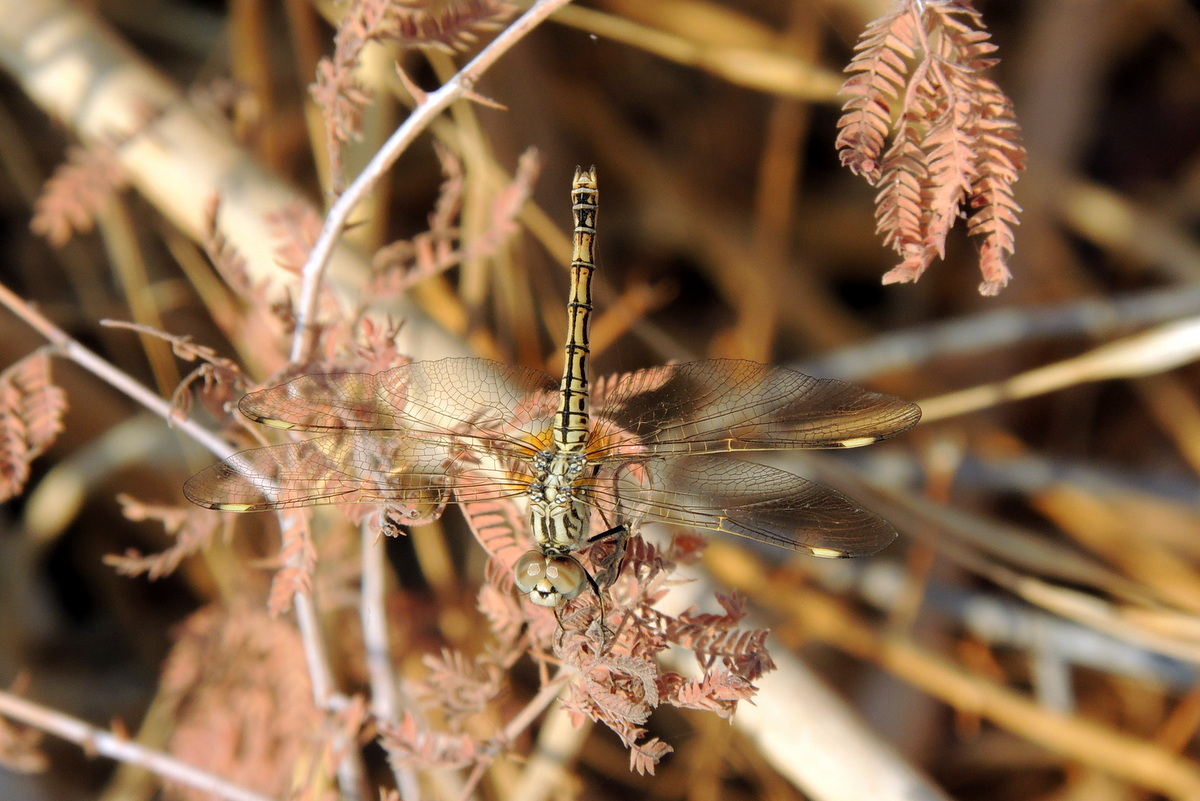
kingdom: Animalia
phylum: Arthropoda
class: Insecta
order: Odonata
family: Libellulidae
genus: Brachythemis
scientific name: Brachythemis impartita
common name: Banded groundling
